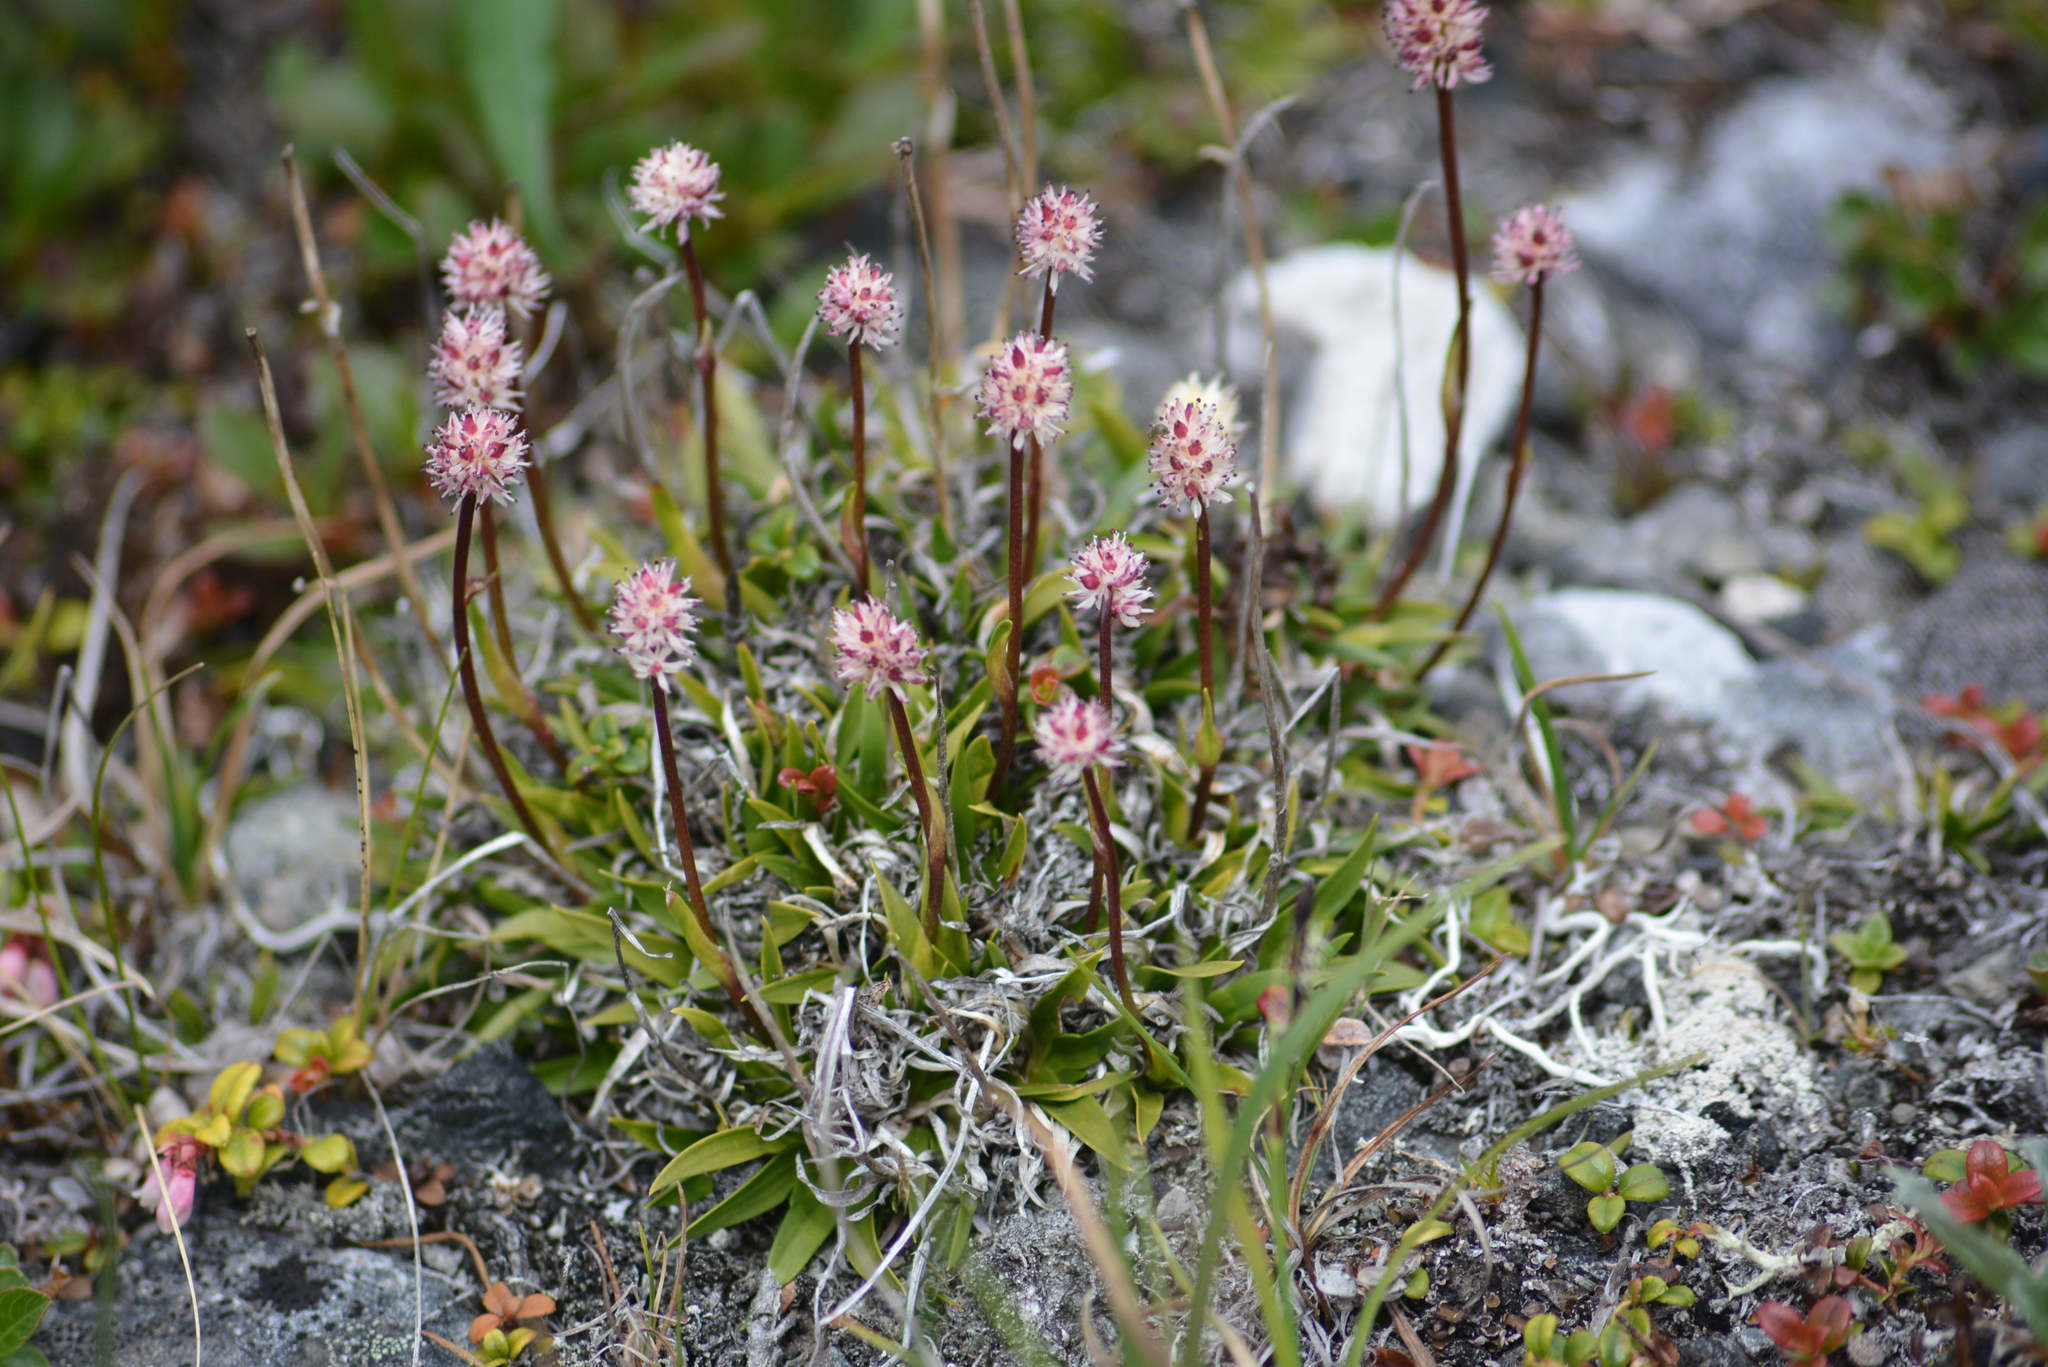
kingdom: Plantae
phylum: Tracheophyta
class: Liliopsida
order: Alismatales
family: Tofieldiaceae
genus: Tofieldia
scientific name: Tofieldia coccinea
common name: Northern false asphodel
